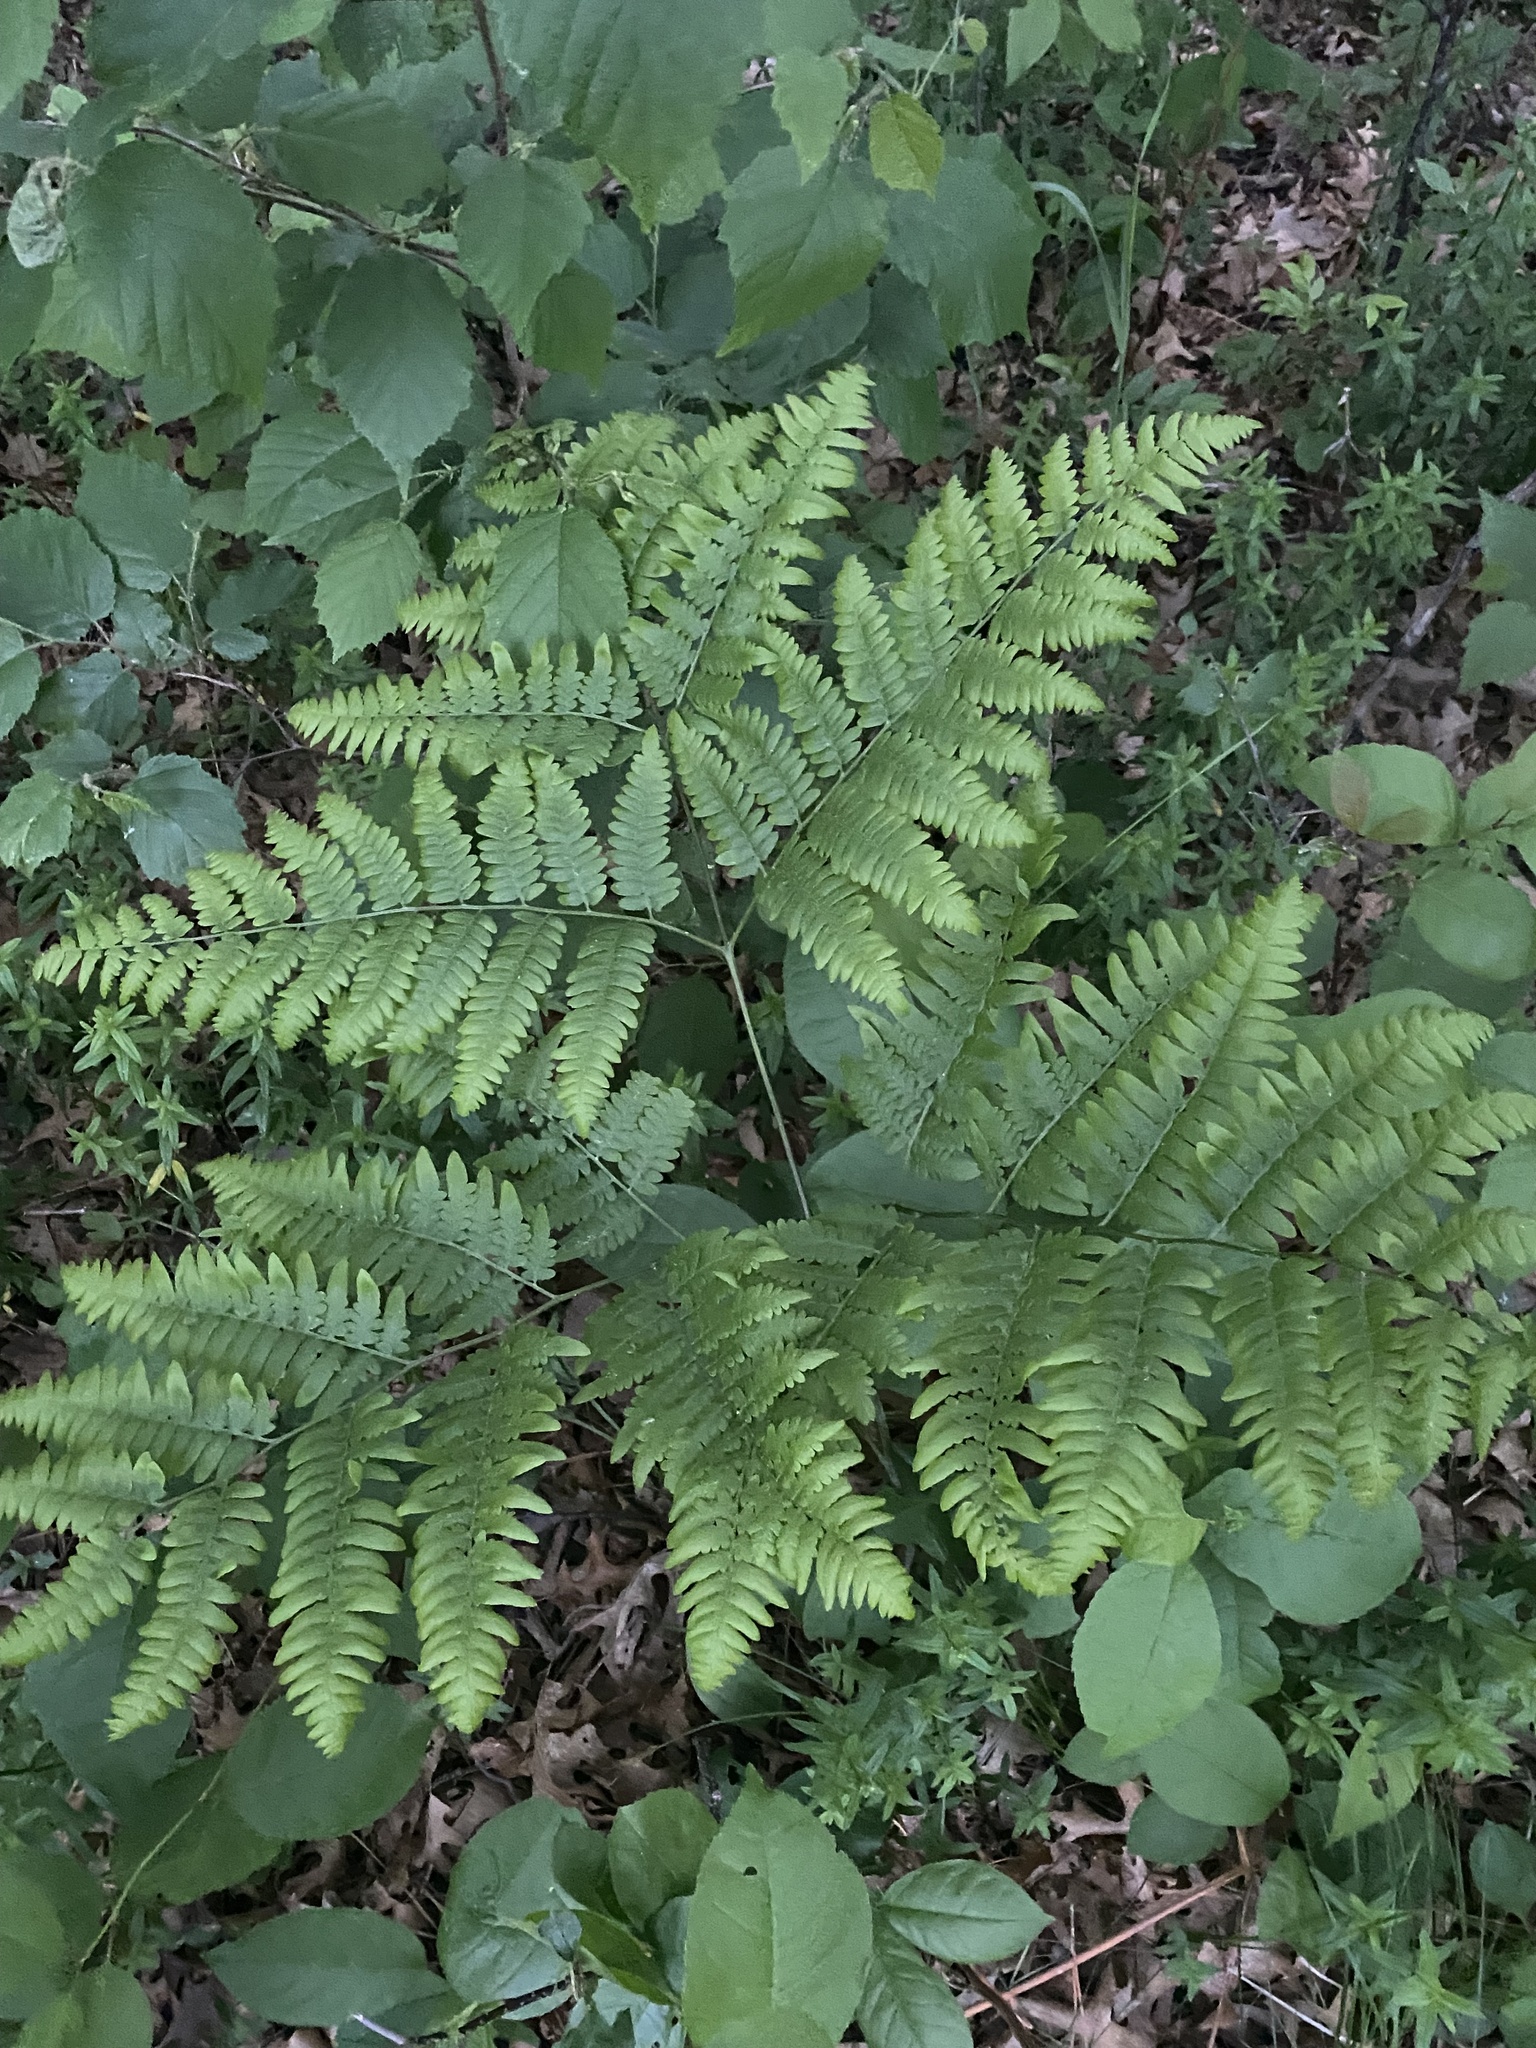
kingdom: Plantae
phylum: Tracheophyta
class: Polypodiopsida
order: Polypodiales
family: Dennstaedtiaceae
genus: Pteridium
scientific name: Pteridium aquilinum
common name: Bracken
